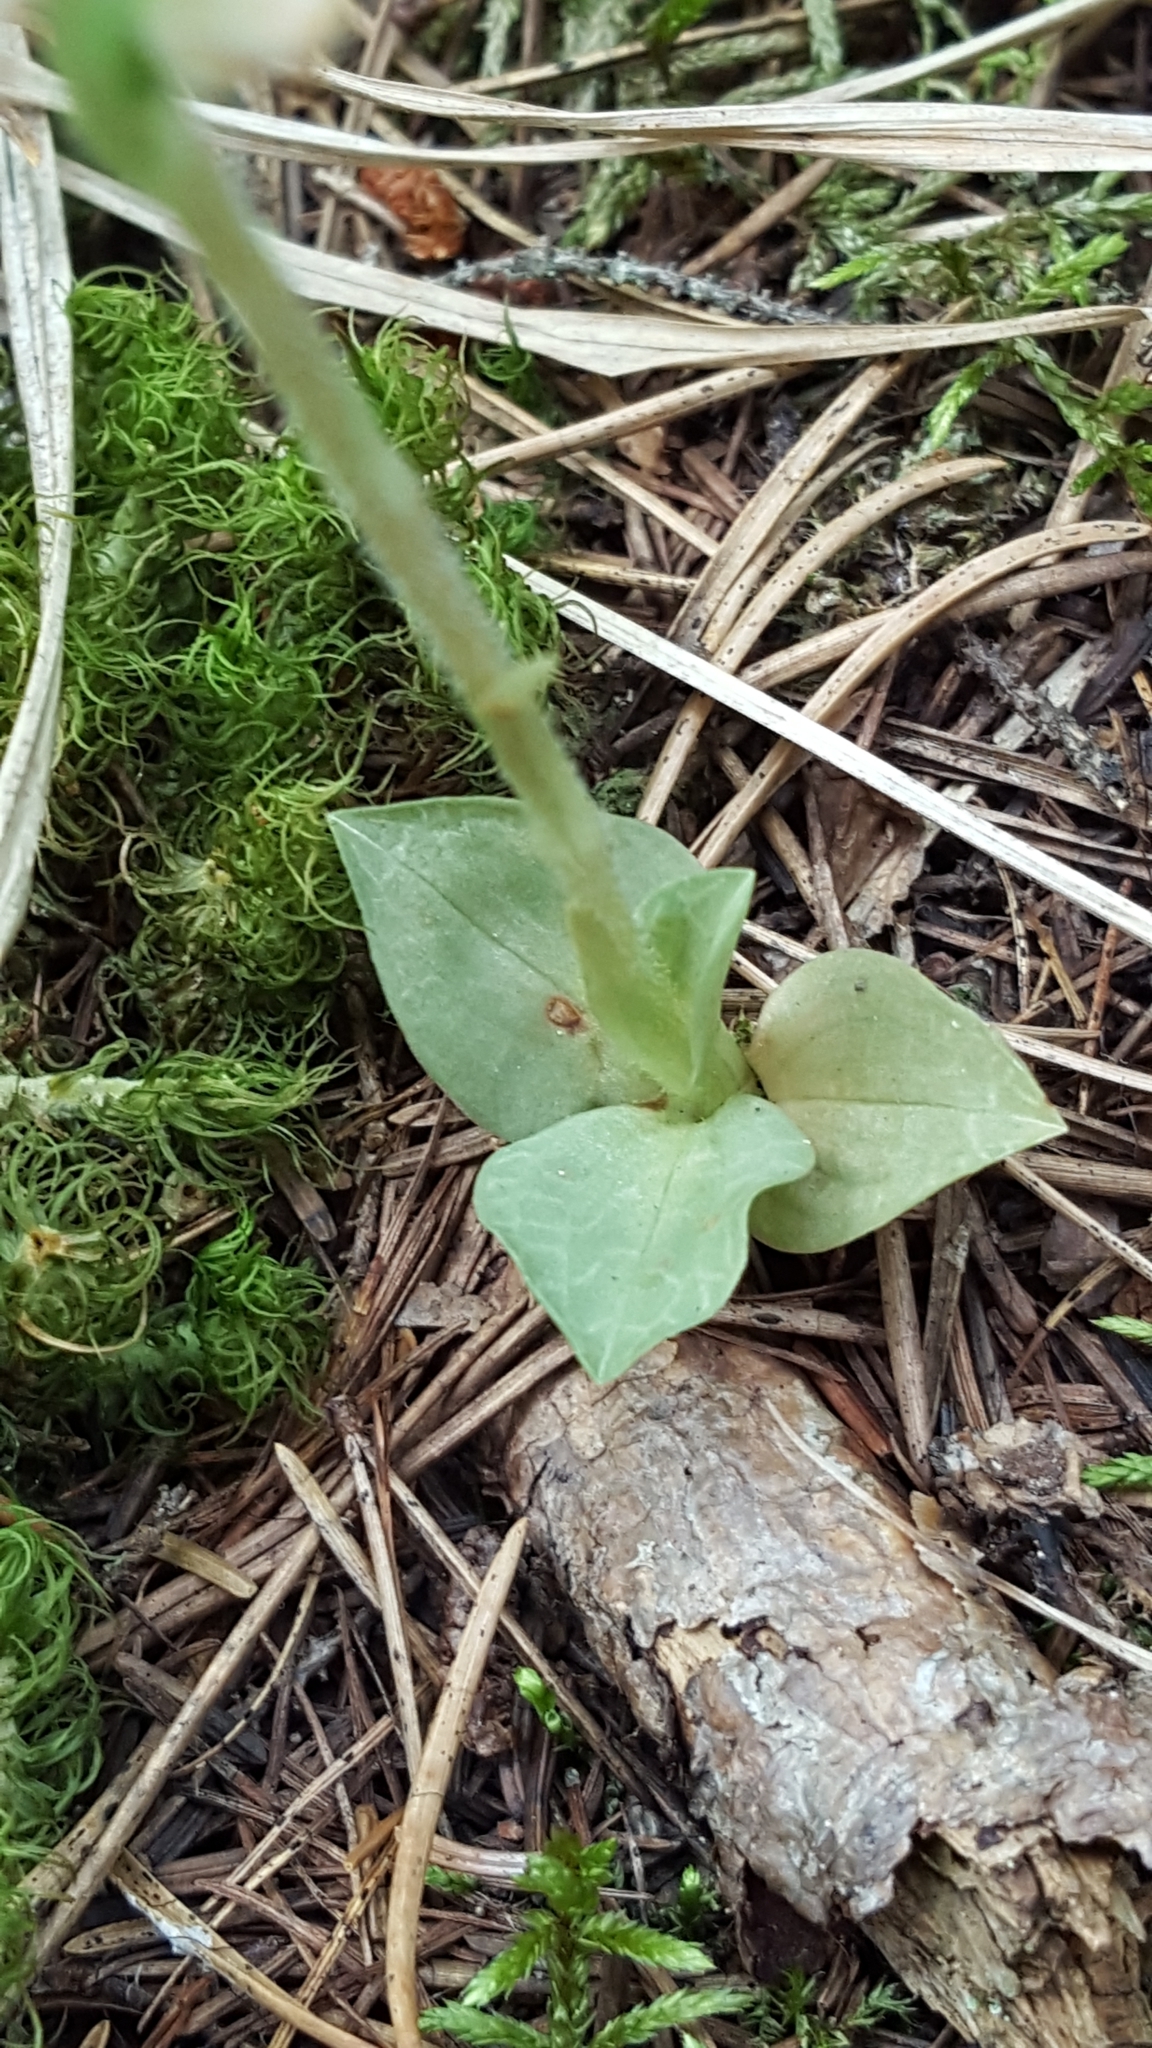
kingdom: Plantae
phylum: Tracheophyta
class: Liliopsida
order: Asparagales
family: Orchidaceae
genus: Goodyera
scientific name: Goodyera tesselata
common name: Checkered rattlesnake-plantain
